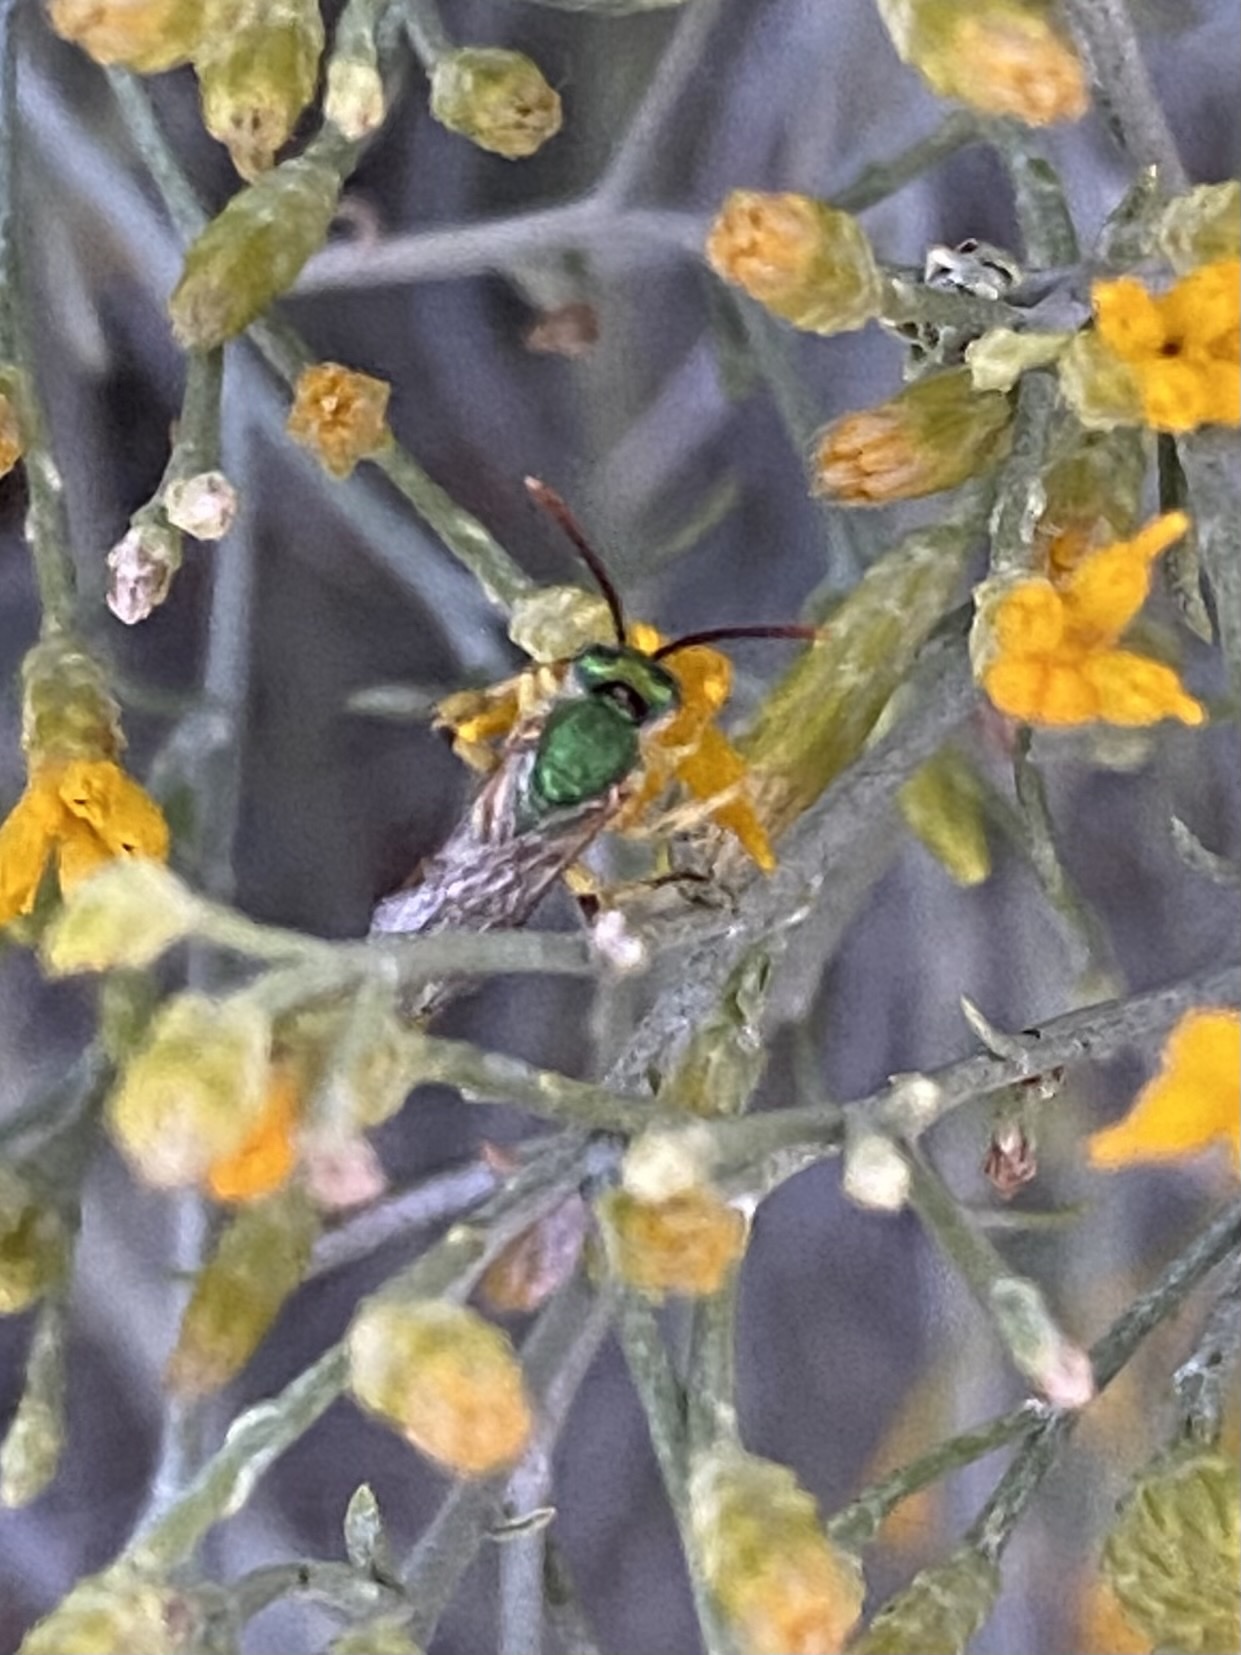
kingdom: Animalia
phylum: Arthropoda
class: Insecta
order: Hymenoptera
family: Halictidae
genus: Agapostemon
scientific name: Agapostemon
